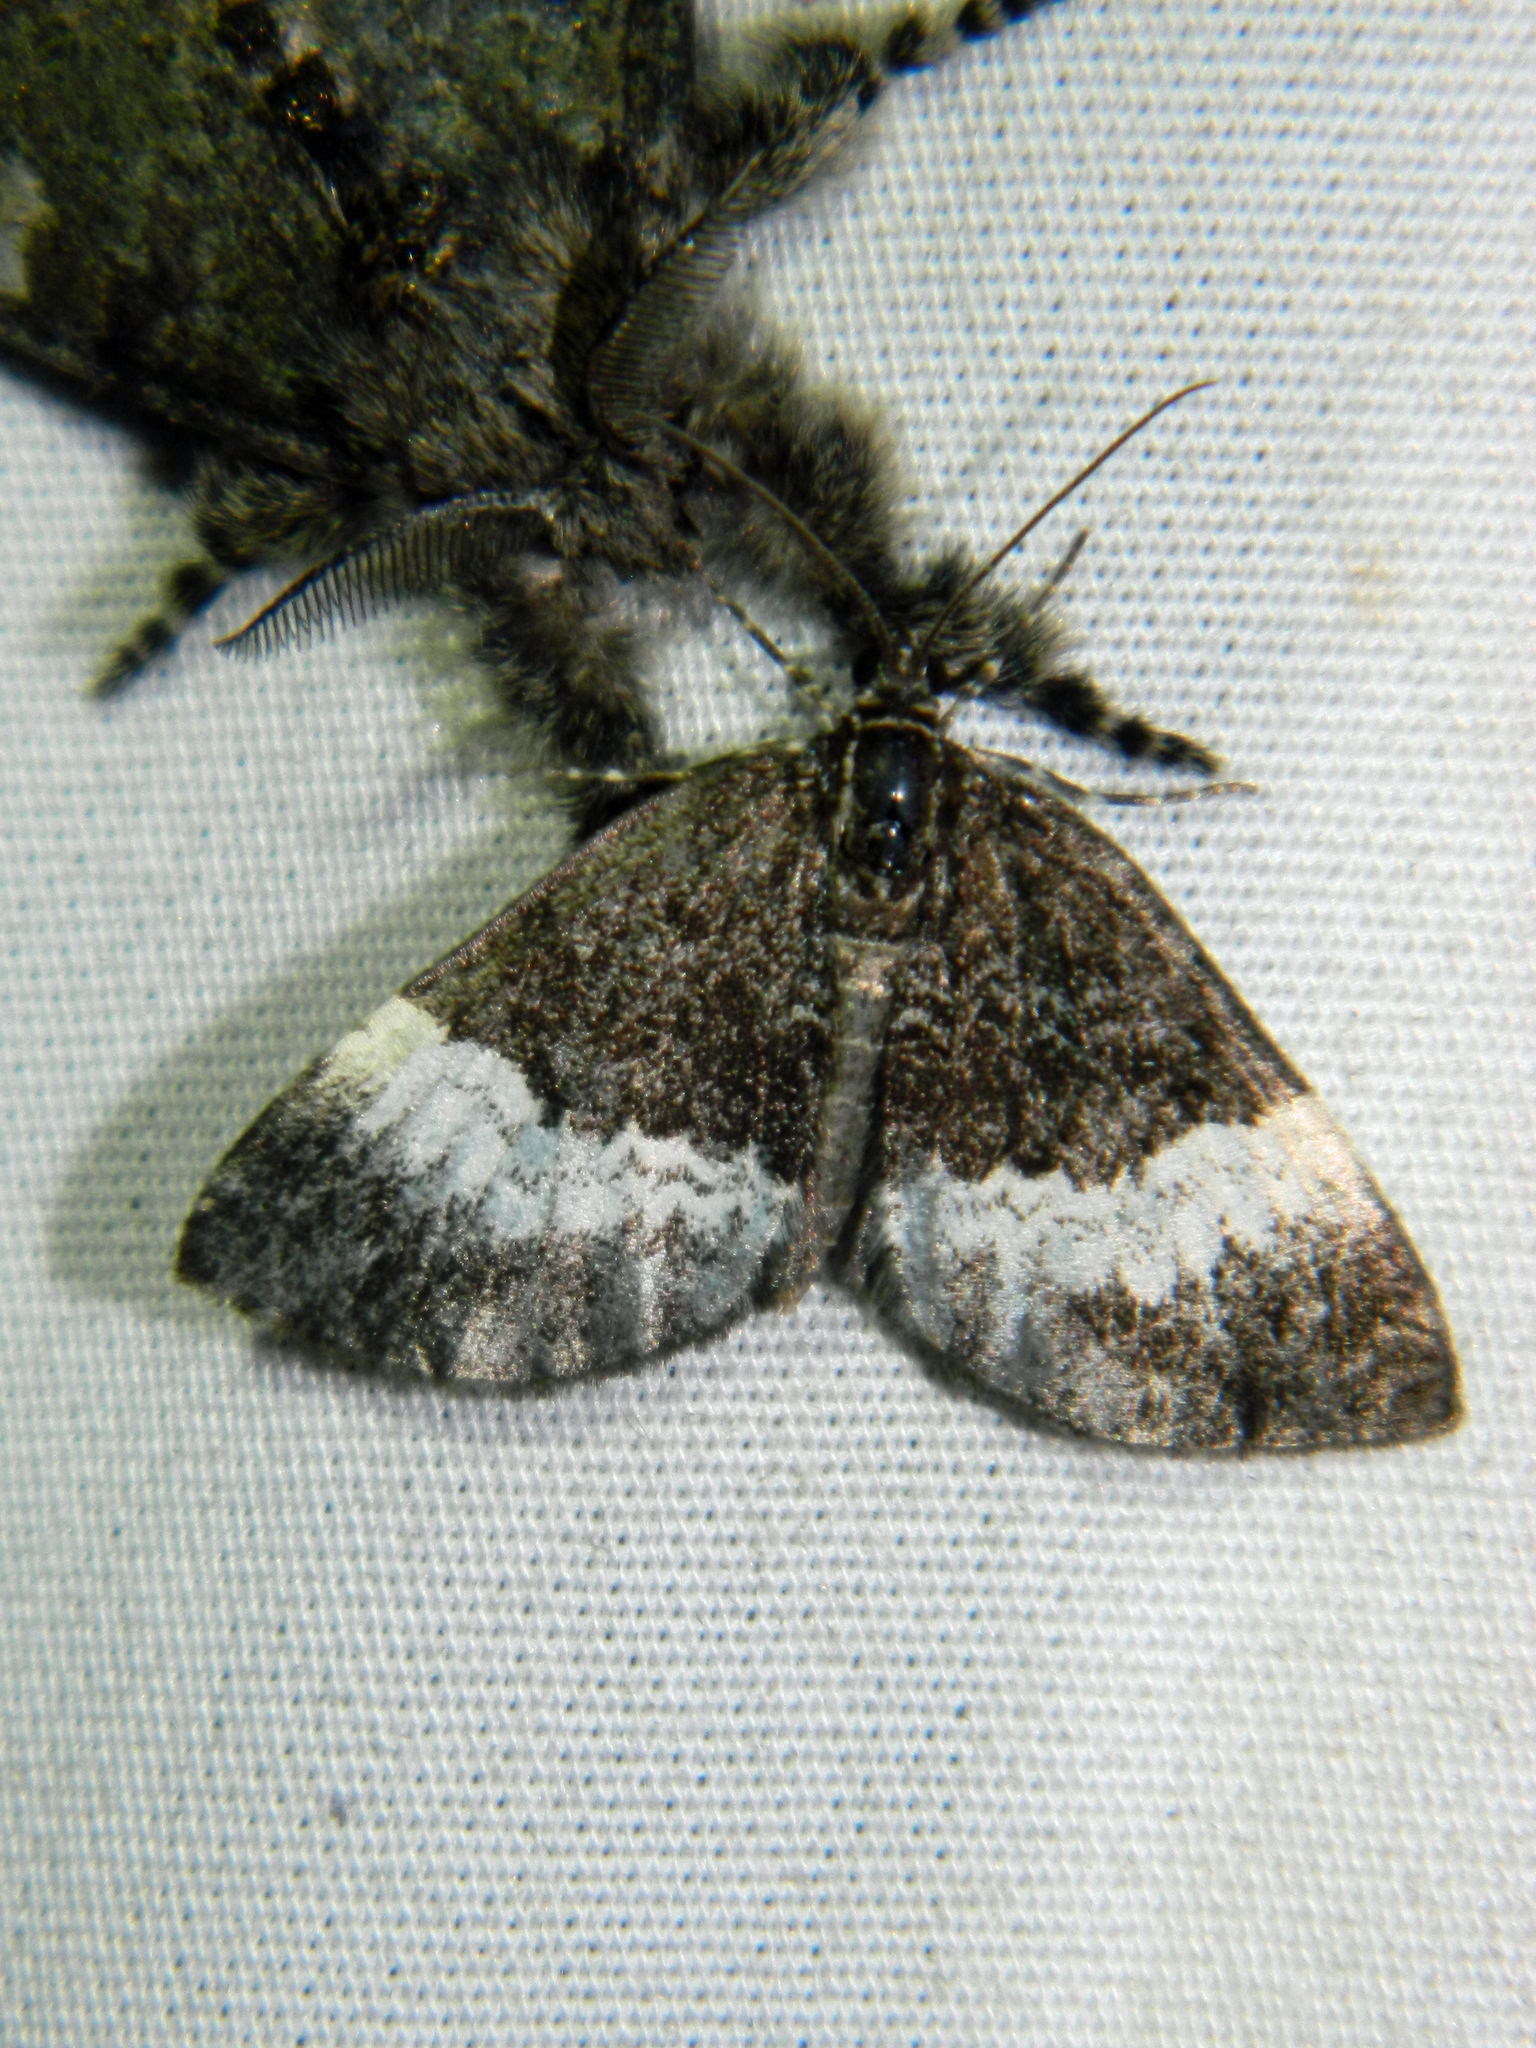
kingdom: Animalia
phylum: Arthropoda
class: Insecta
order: Lepidoptera
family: Geometridae
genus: Spargania
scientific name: Spargania luctuata
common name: White-banded carpet
